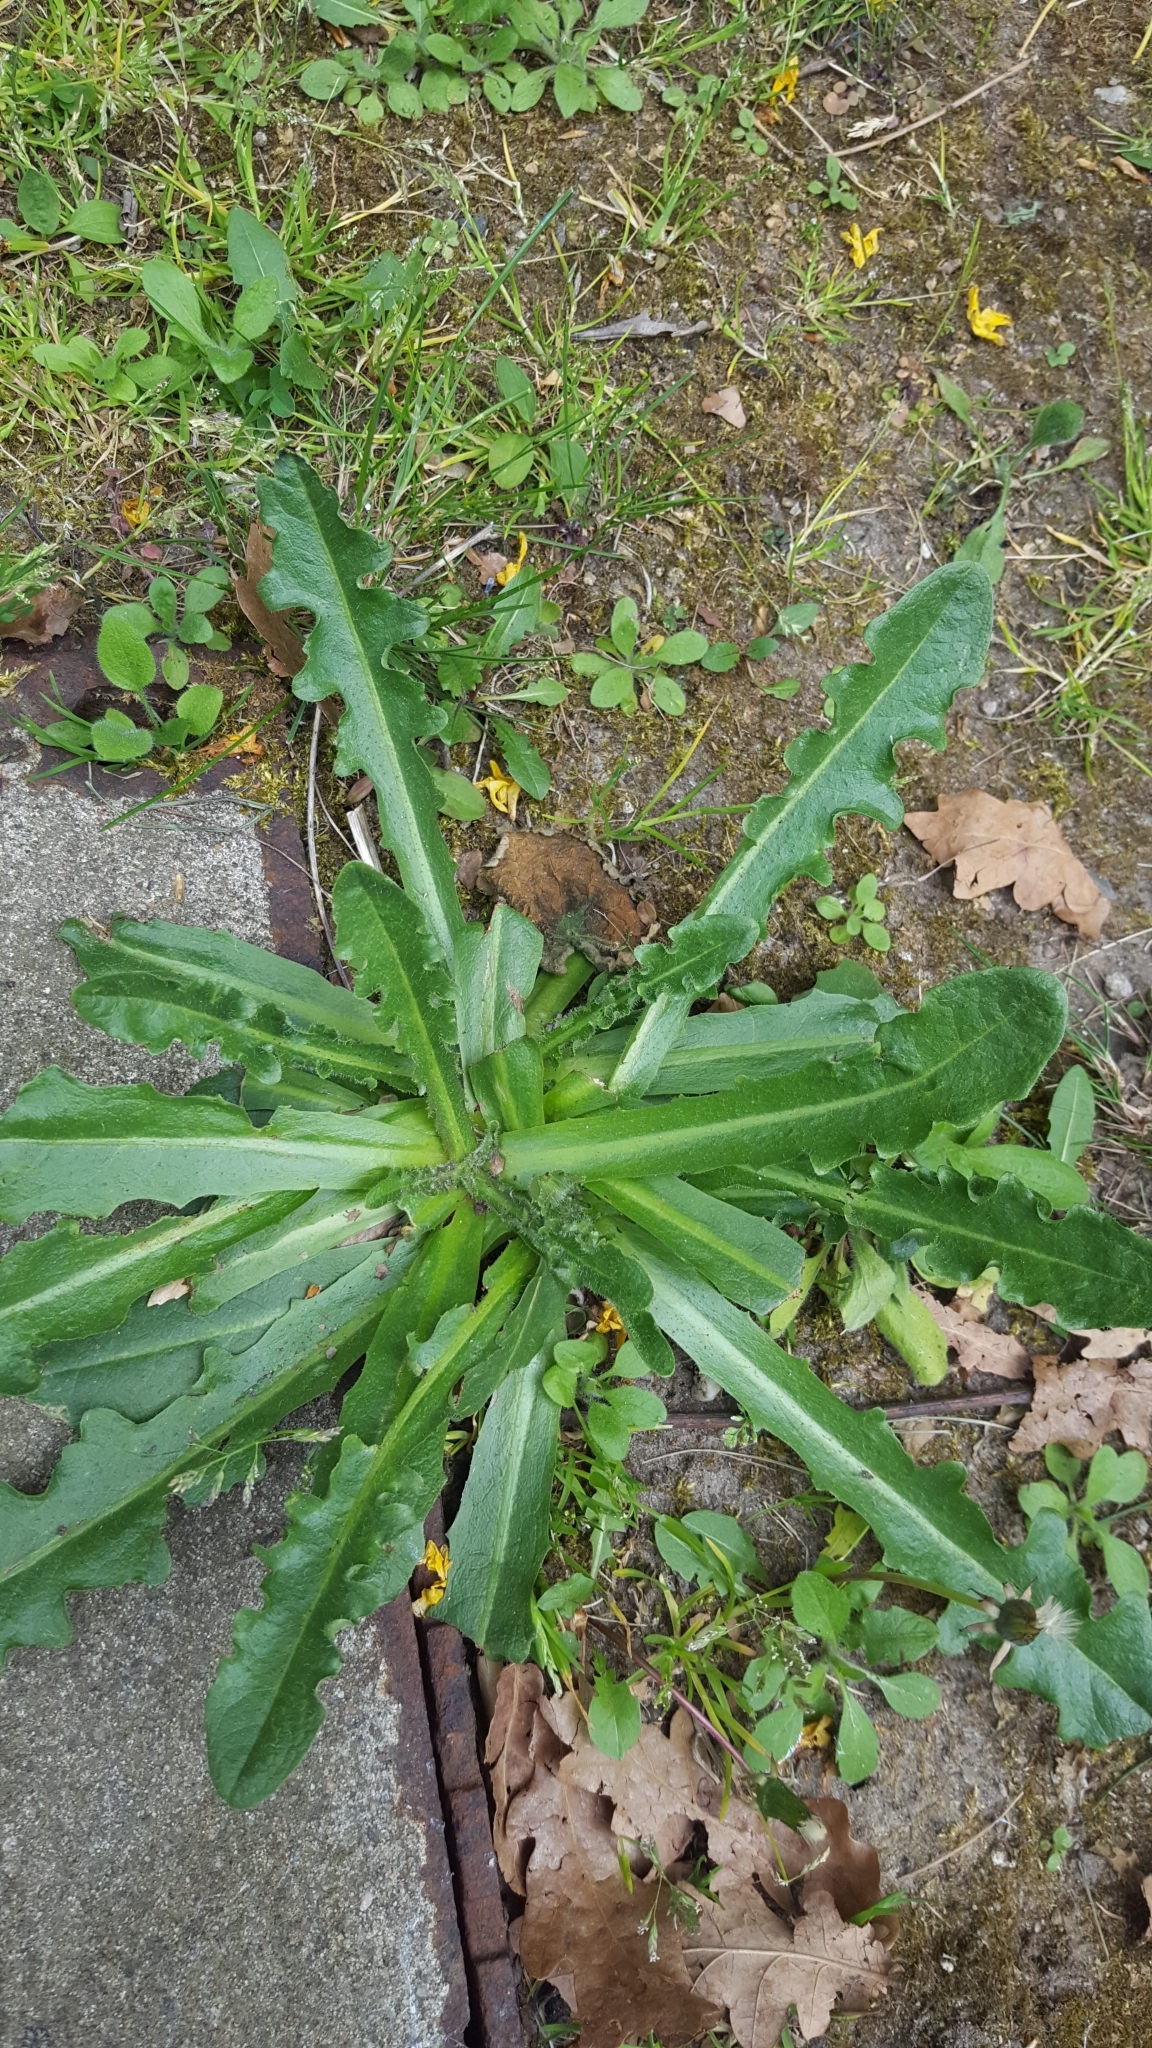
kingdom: Plantae
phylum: Tracheophyta
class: Magnoliopsida
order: Asterales
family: Asteraceae
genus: Hypochaeris
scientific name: Hypochaeris radicata
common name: Flatweed
